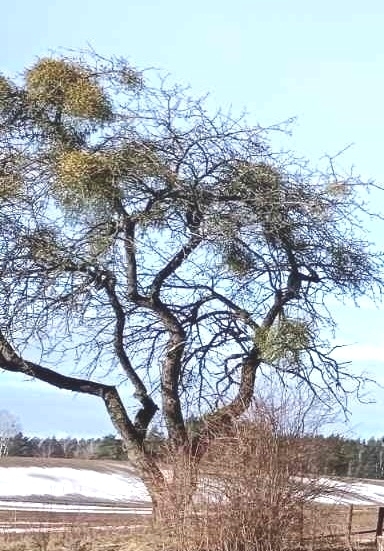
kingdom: Plantae
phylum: Tracheophyta
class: Magnoliopsida
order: Santalales
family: Viscaceae
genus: Viscum
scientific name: Viscum album
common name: Mistletoe
